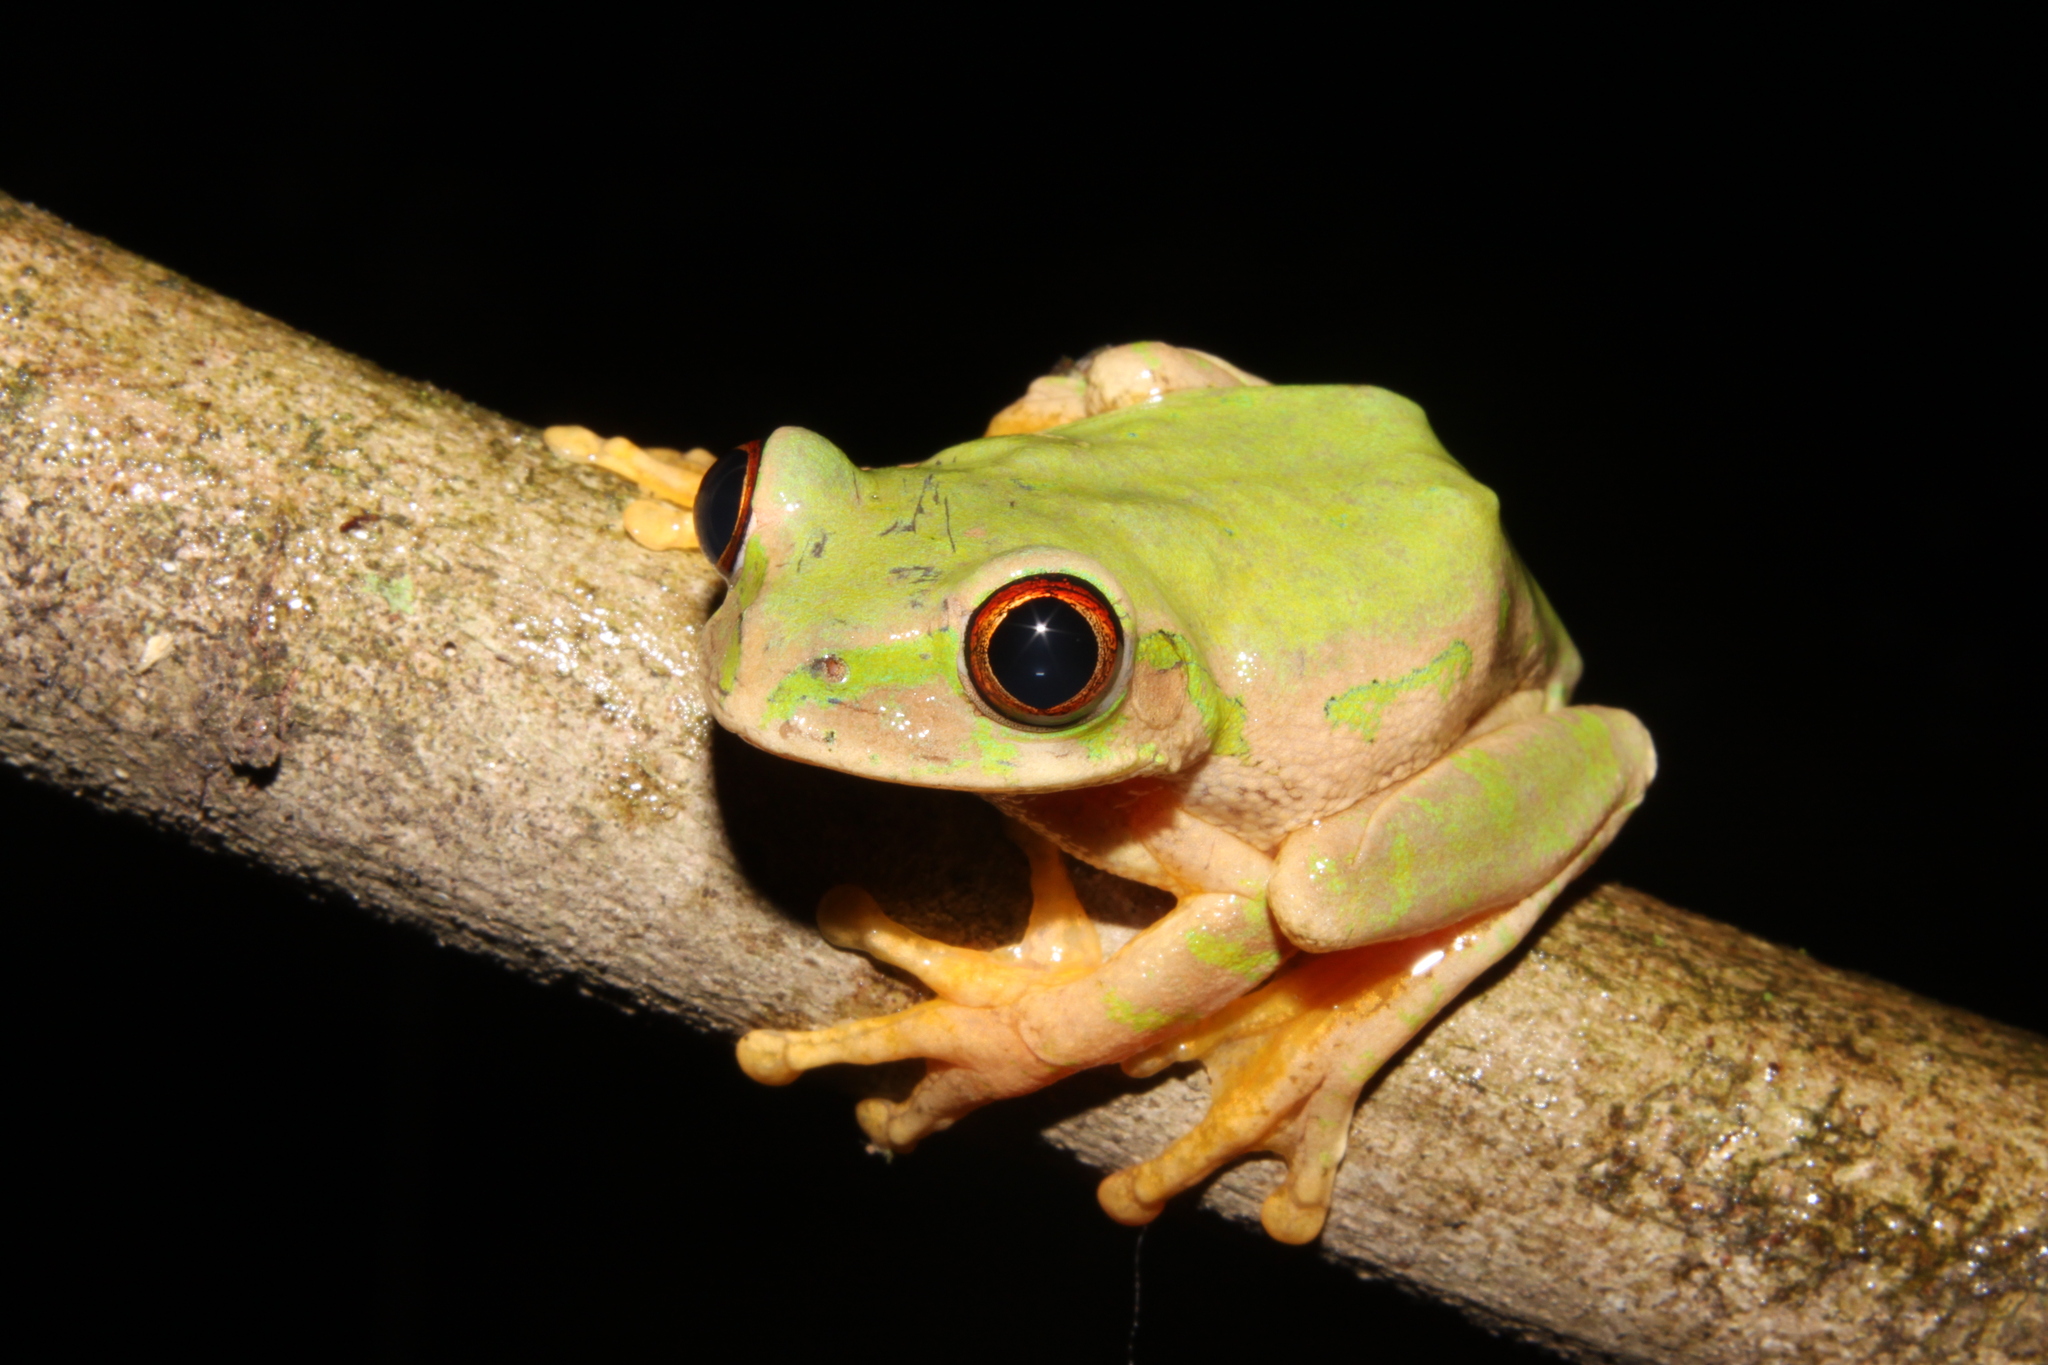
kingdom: Animalia
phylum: Chordata
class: Amphibia
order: Anura
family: Arthroleptidae
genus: Leptopelis
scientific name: Leptopelis natalensis
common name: Natal tree frog
